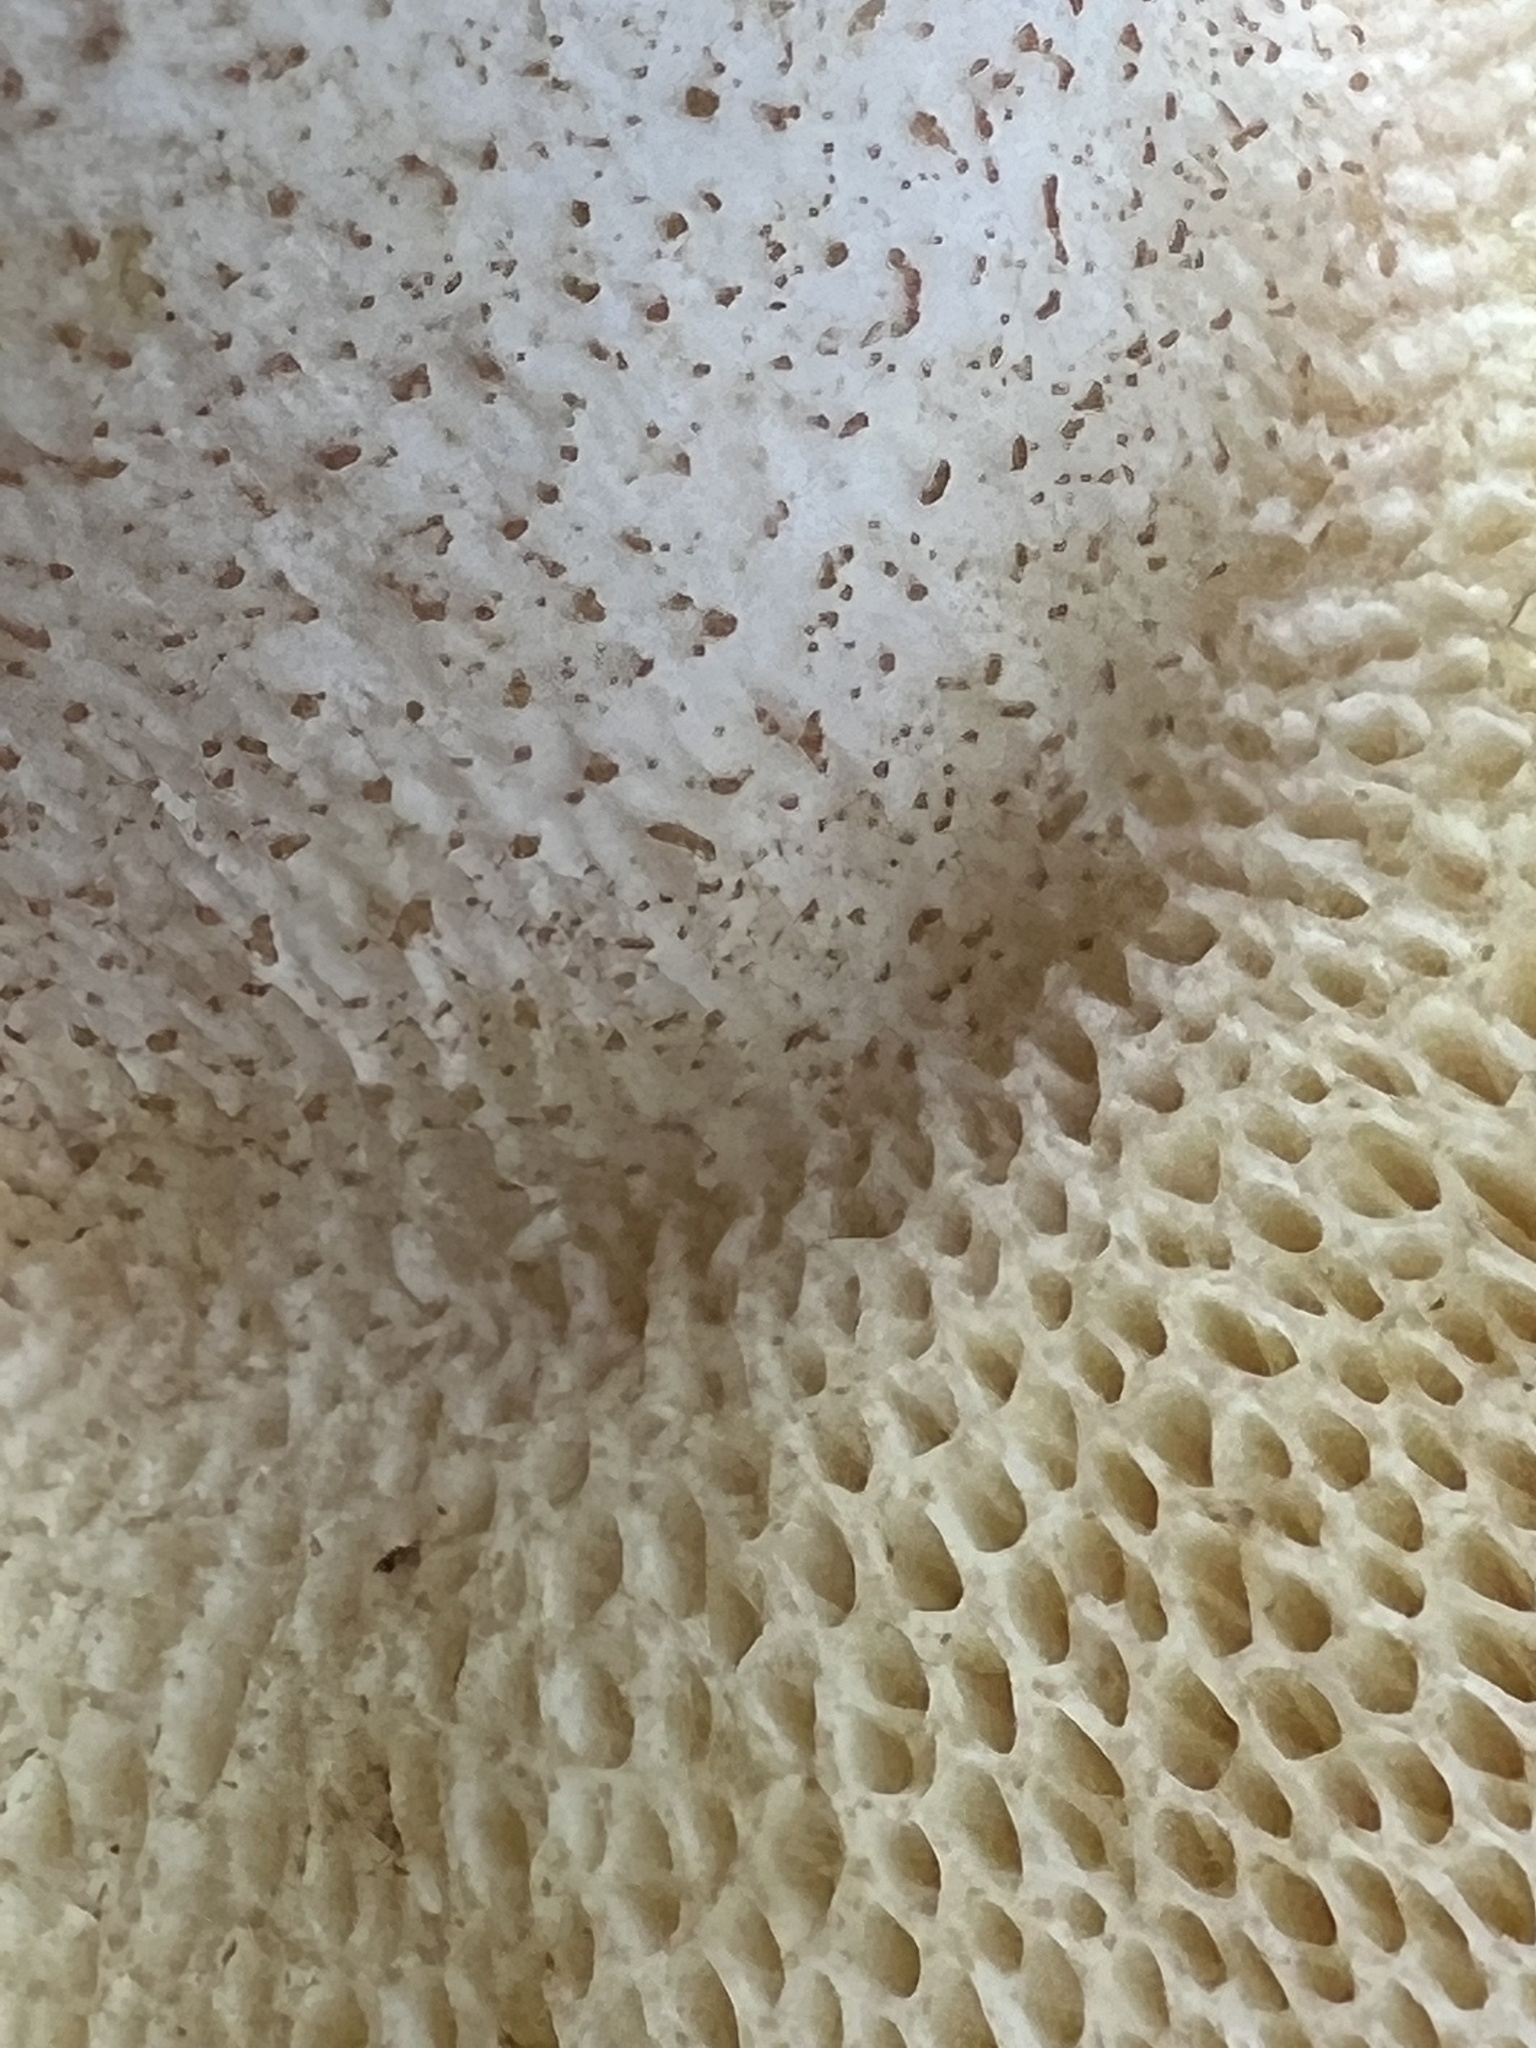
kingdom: Fungi
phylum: Basidiomycota
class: Agaricomycetes
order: Boletales
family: Suillaceae
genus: Fuscoboletinus
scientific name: Fuscoboletinus weaverae
